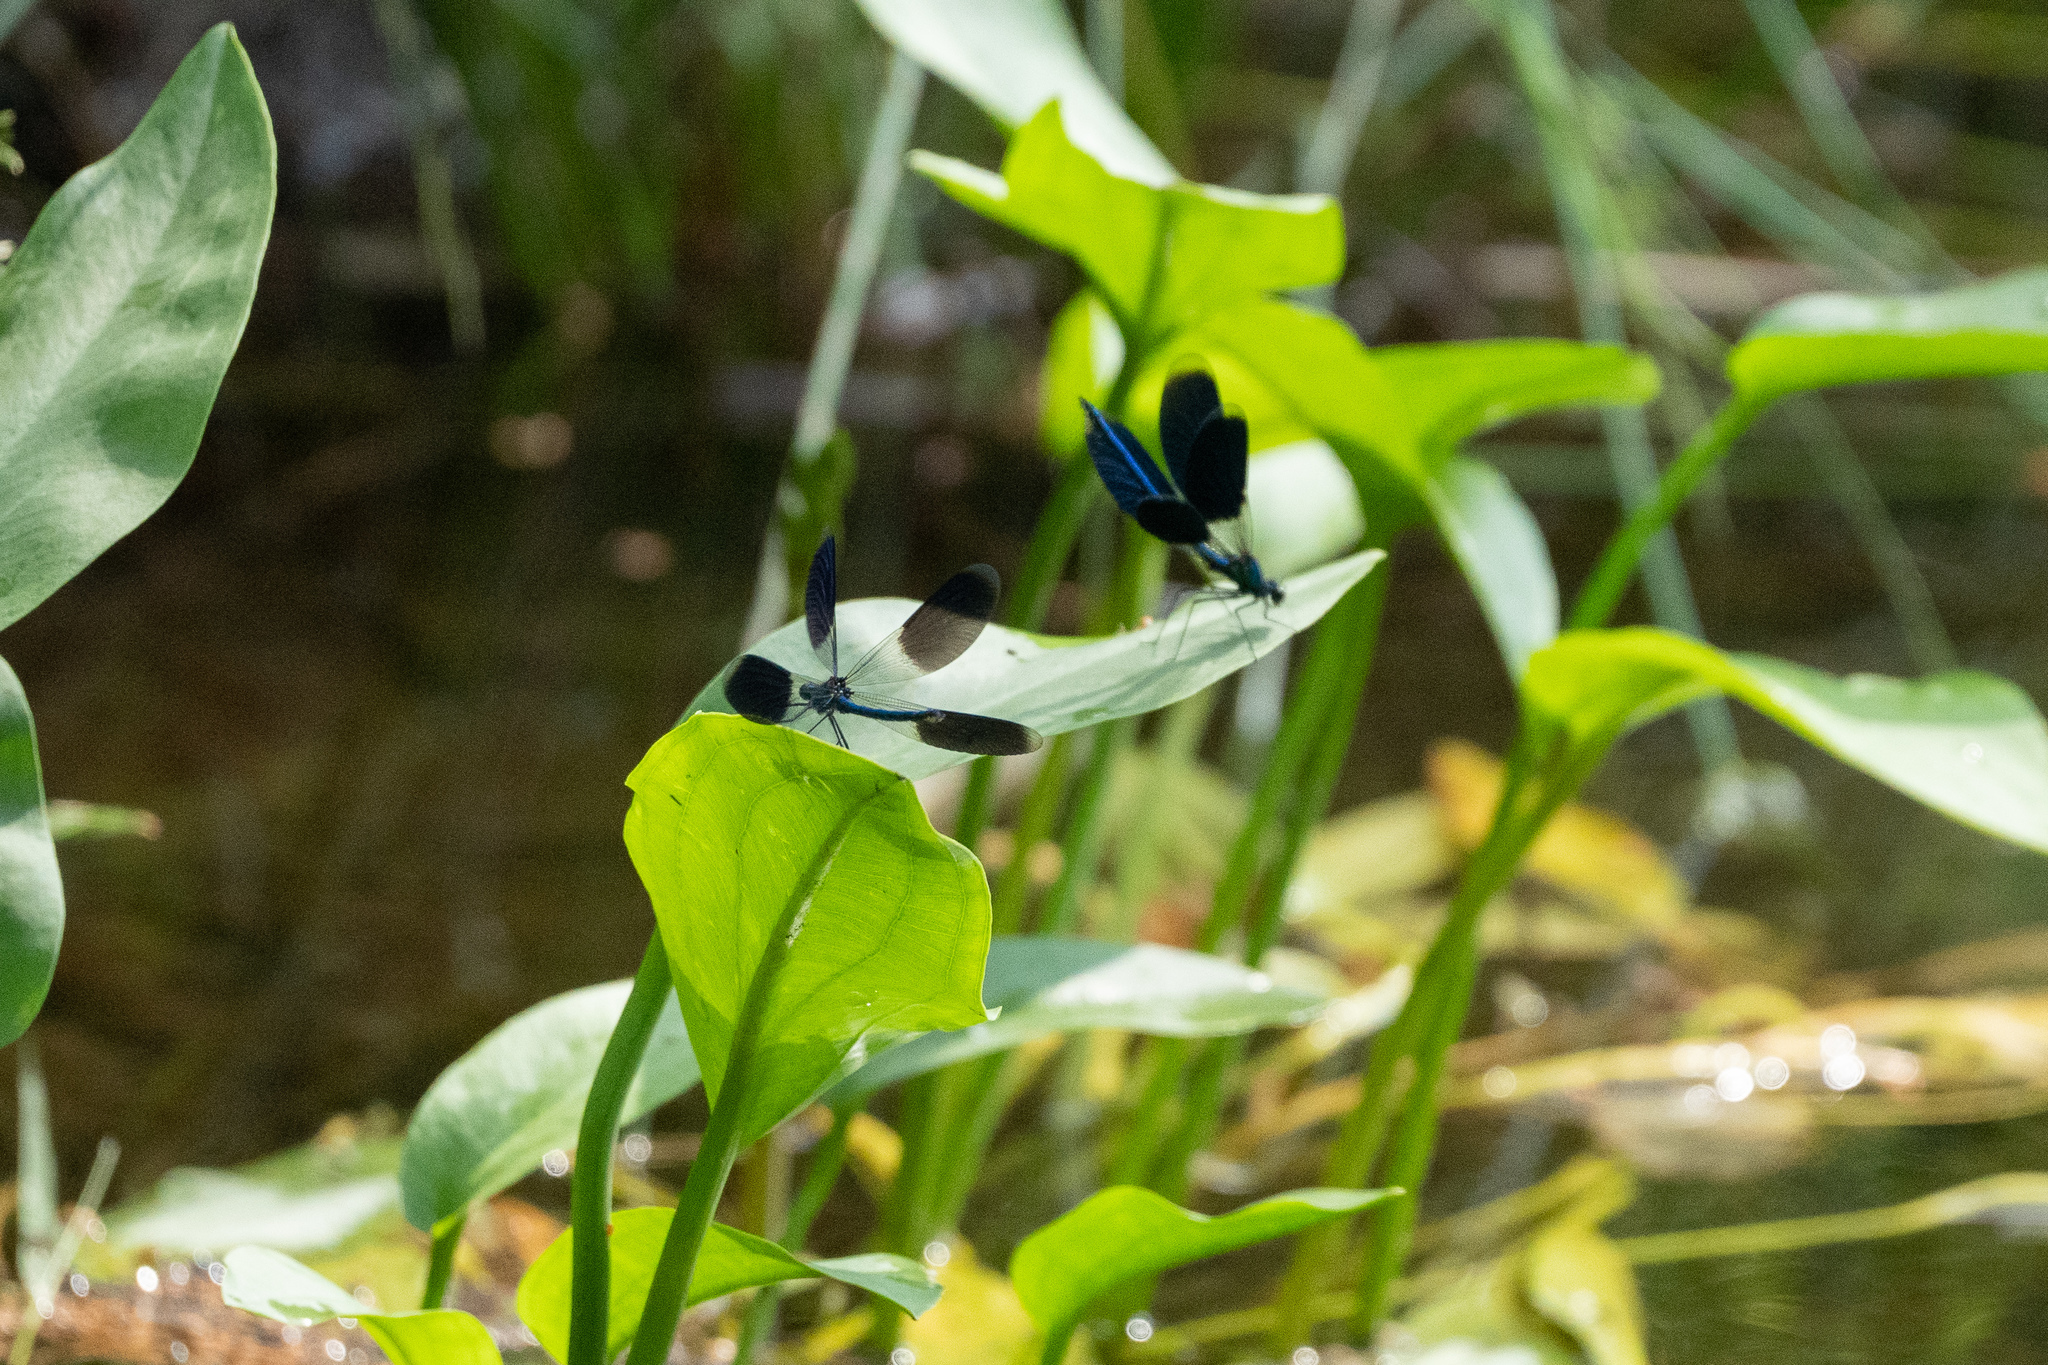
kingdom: Animalia
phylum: Arthropoda
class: Insecta
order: Odonata
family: Calopterygidae
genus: Calopteryx
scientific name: Calopteryx splendens
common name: Banded demoiselle
